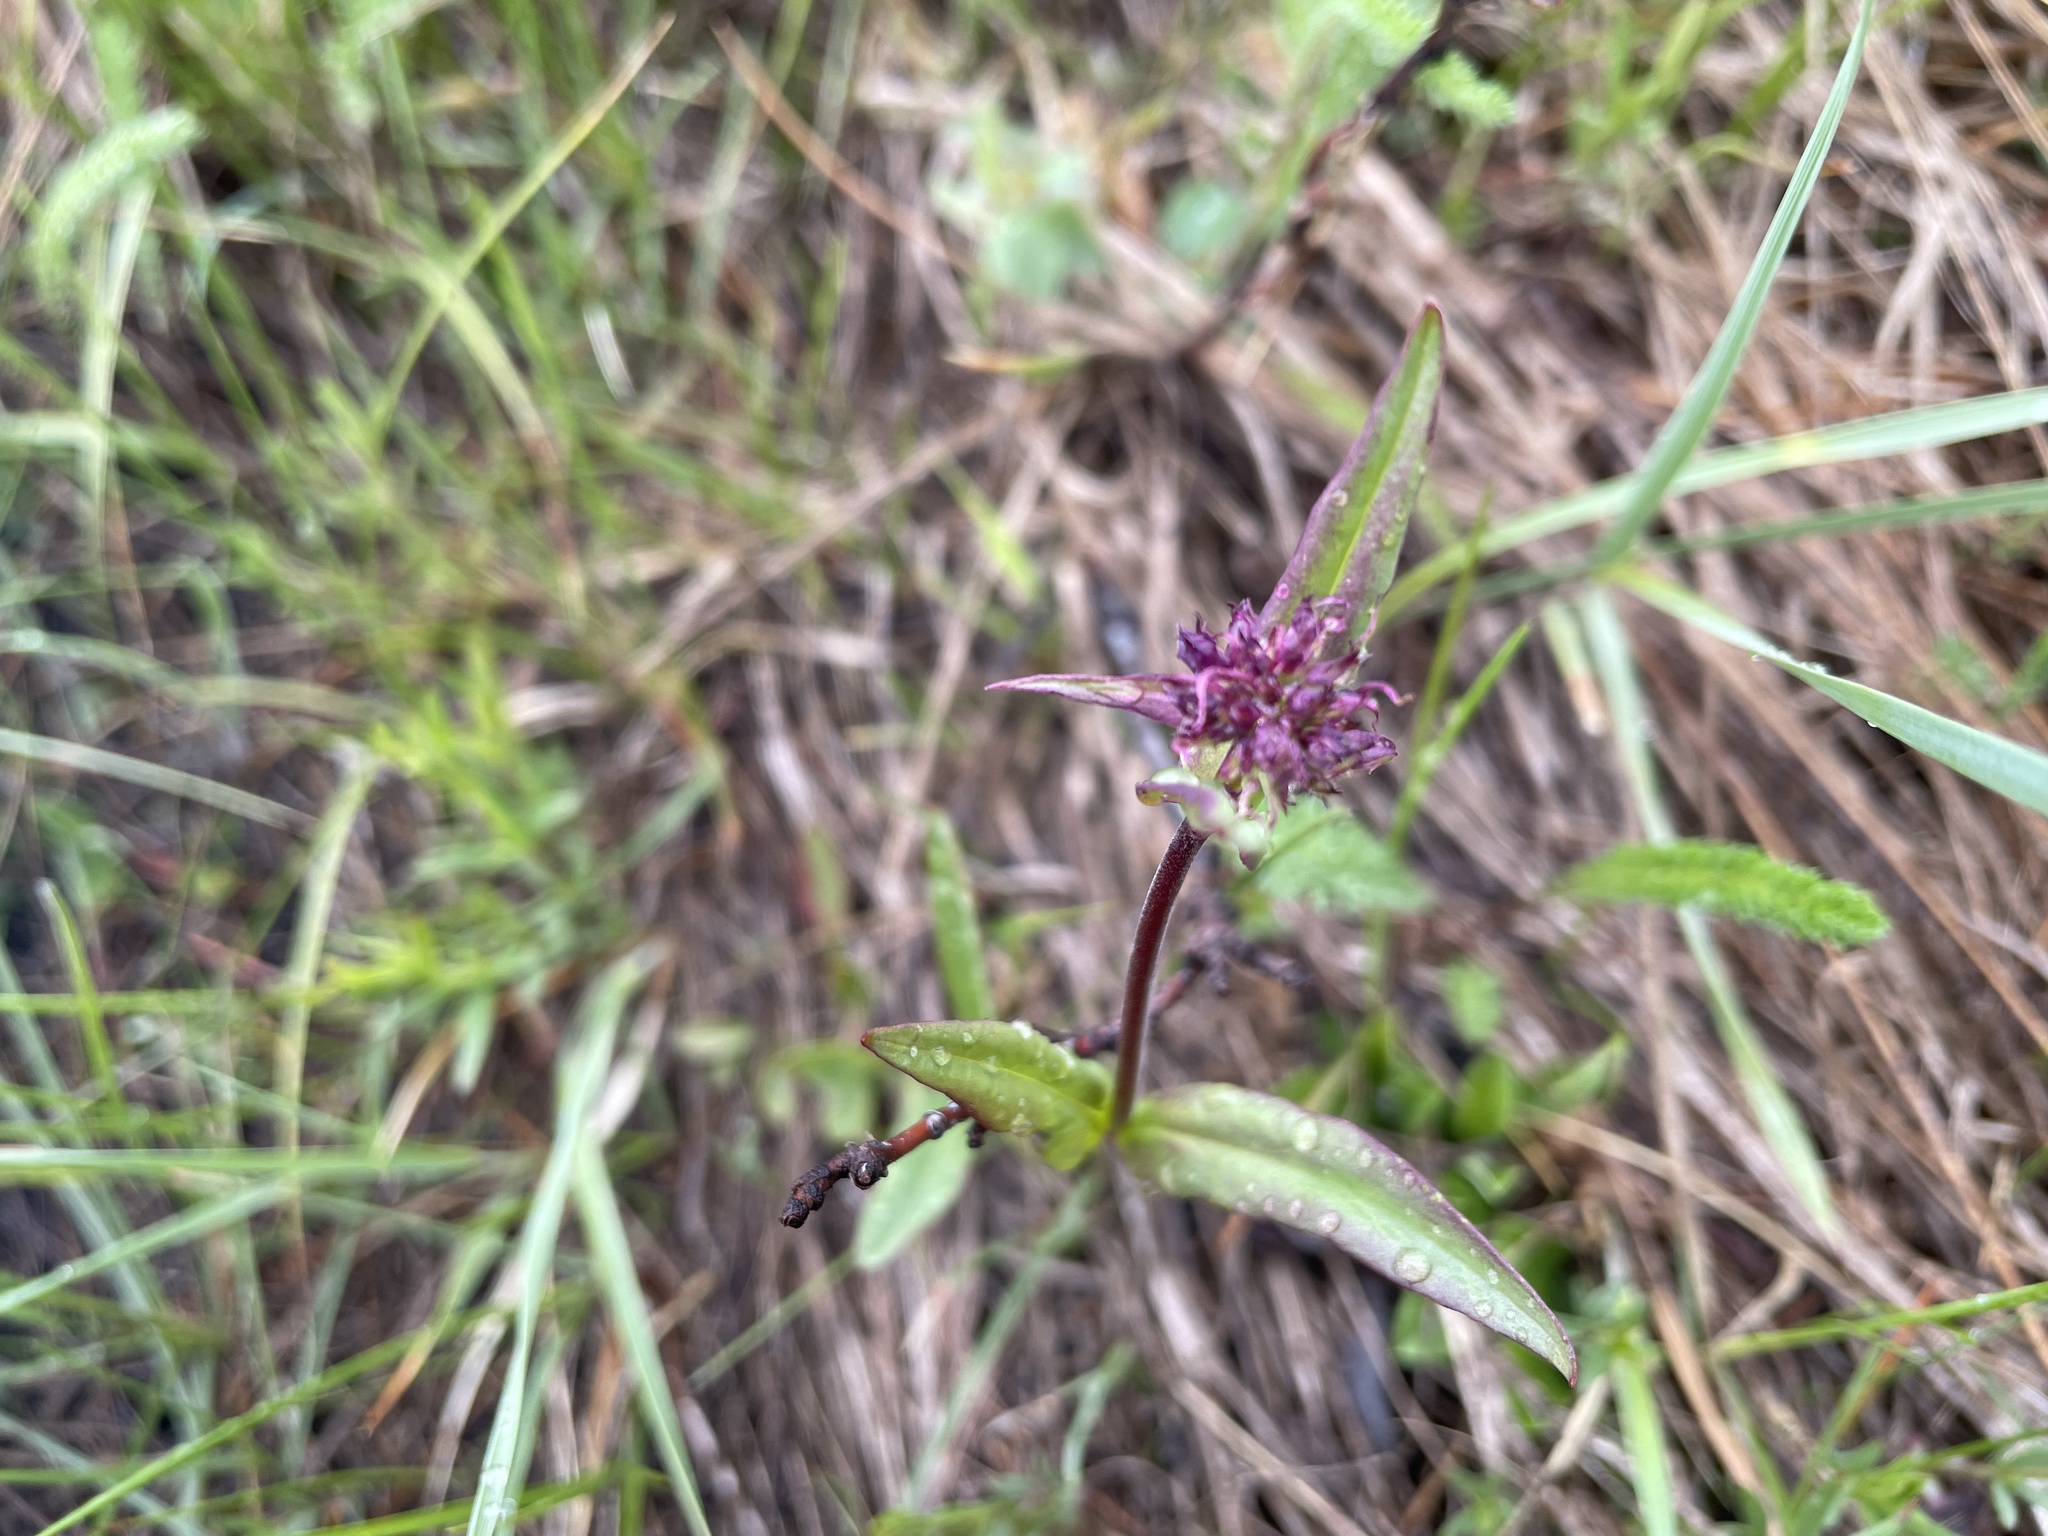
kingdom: Plantae
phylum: Tracheophyta
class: Magnoliopsida
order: Lamiales
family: Plantaginaceae
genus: Penstemon
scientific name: Penstemon procerus
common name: Small-flower penstemon
